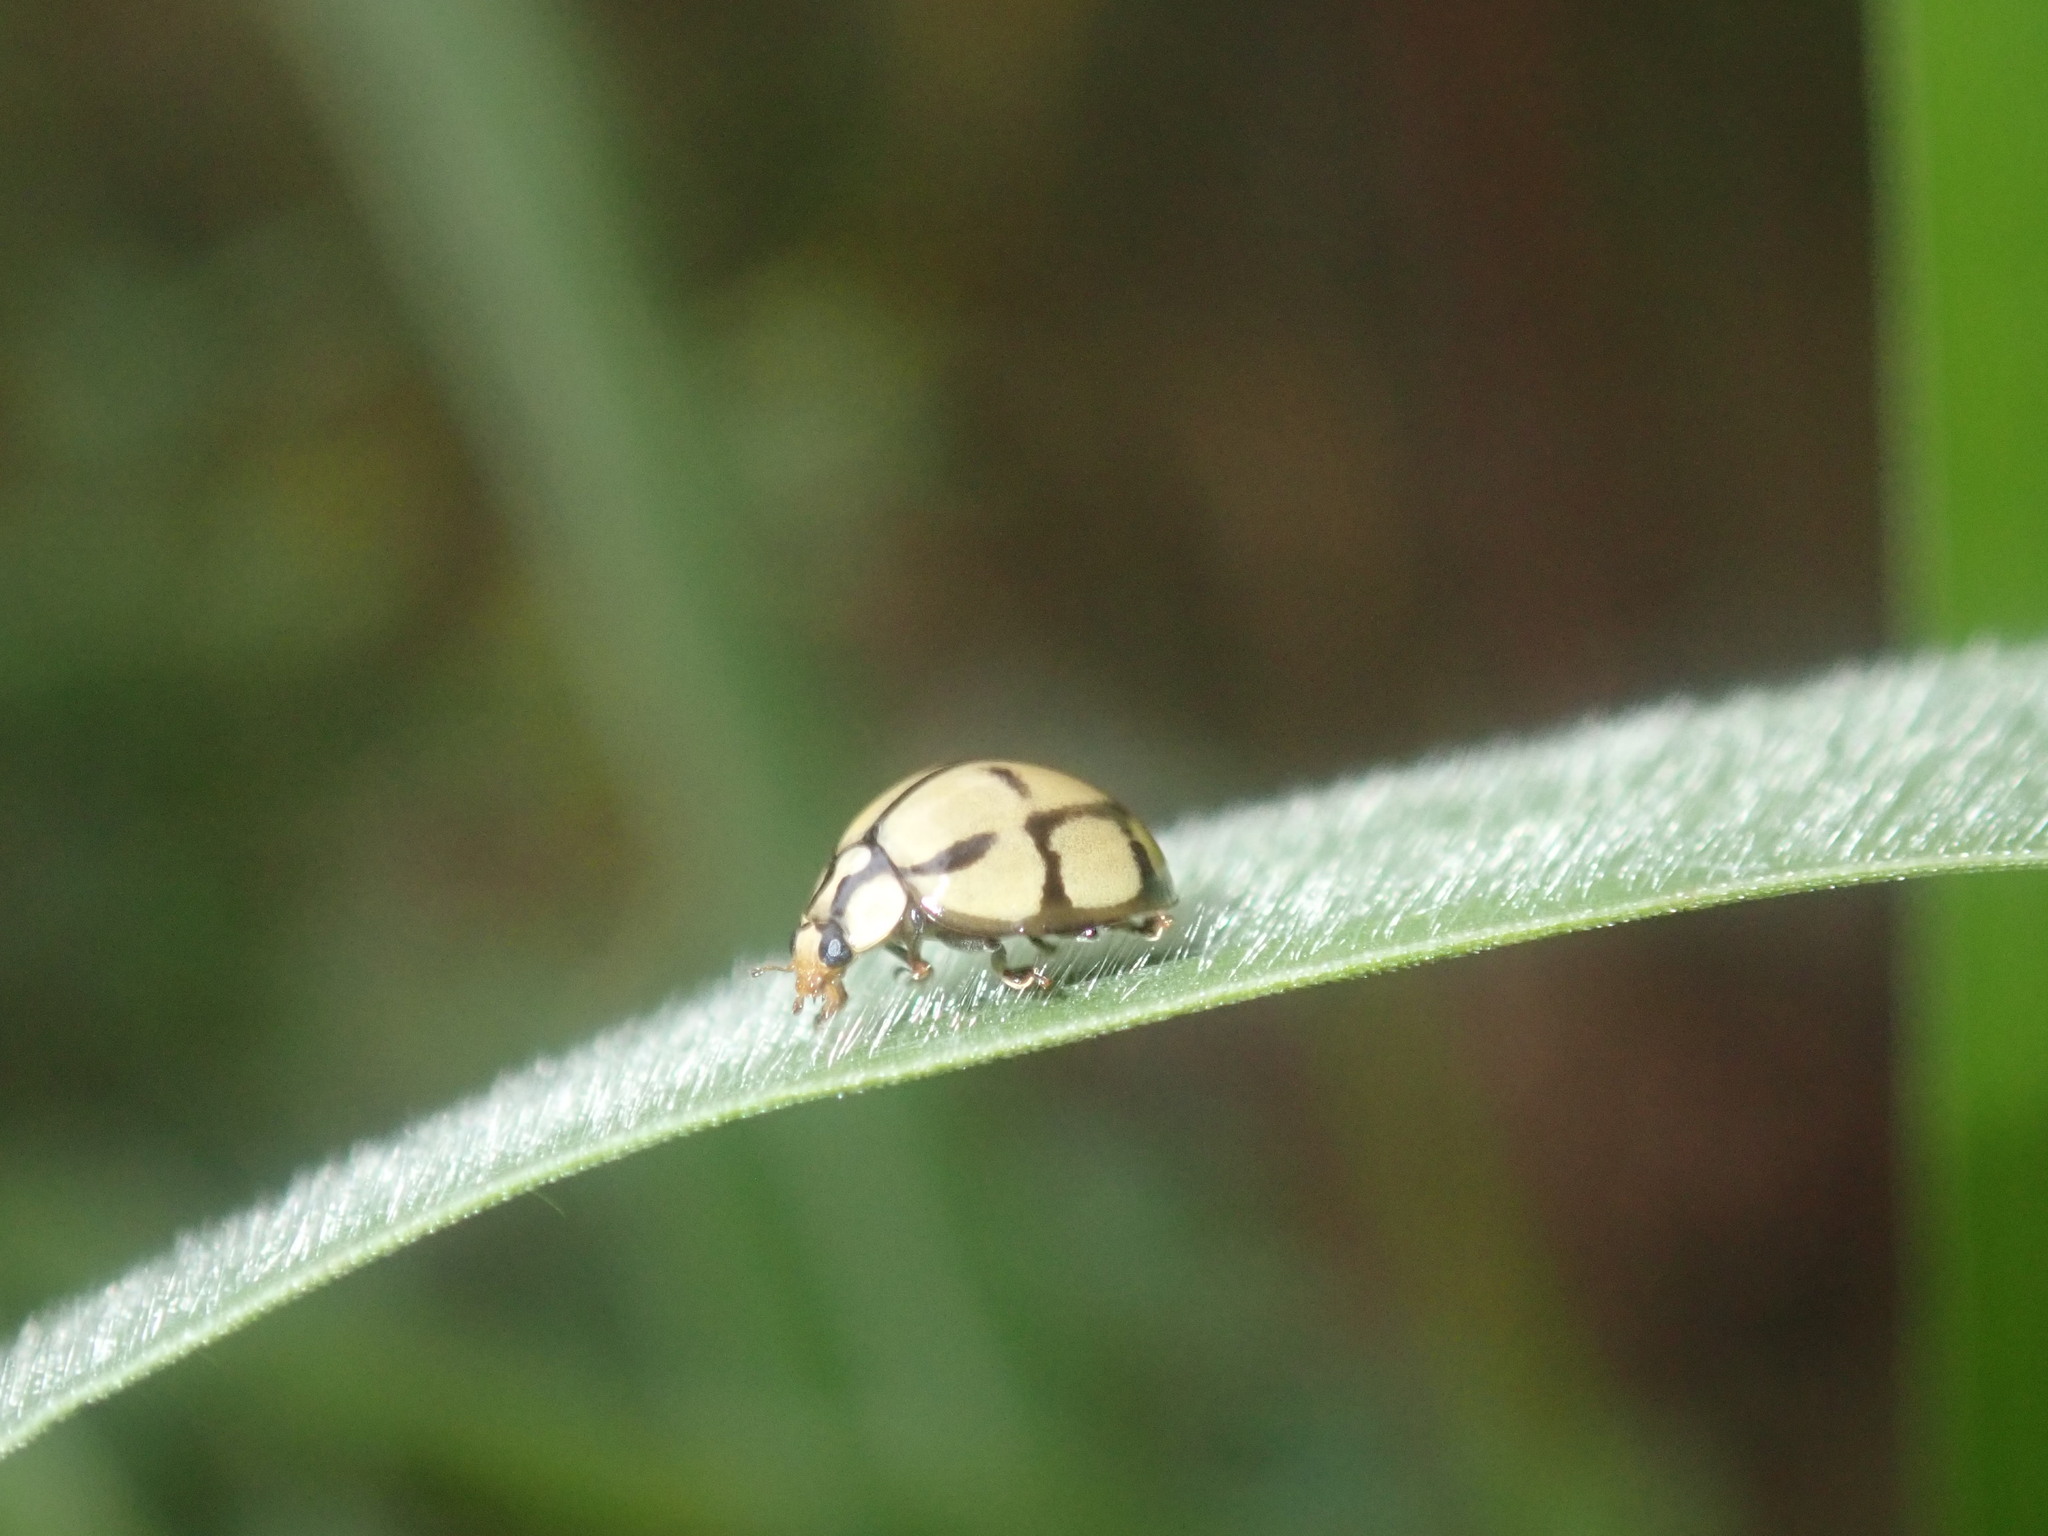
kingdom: Animalia
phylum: Arthropoda
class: Insecta
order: Coleoptera
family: Coccinellidae
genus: Harmonia
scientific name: Harmonia
